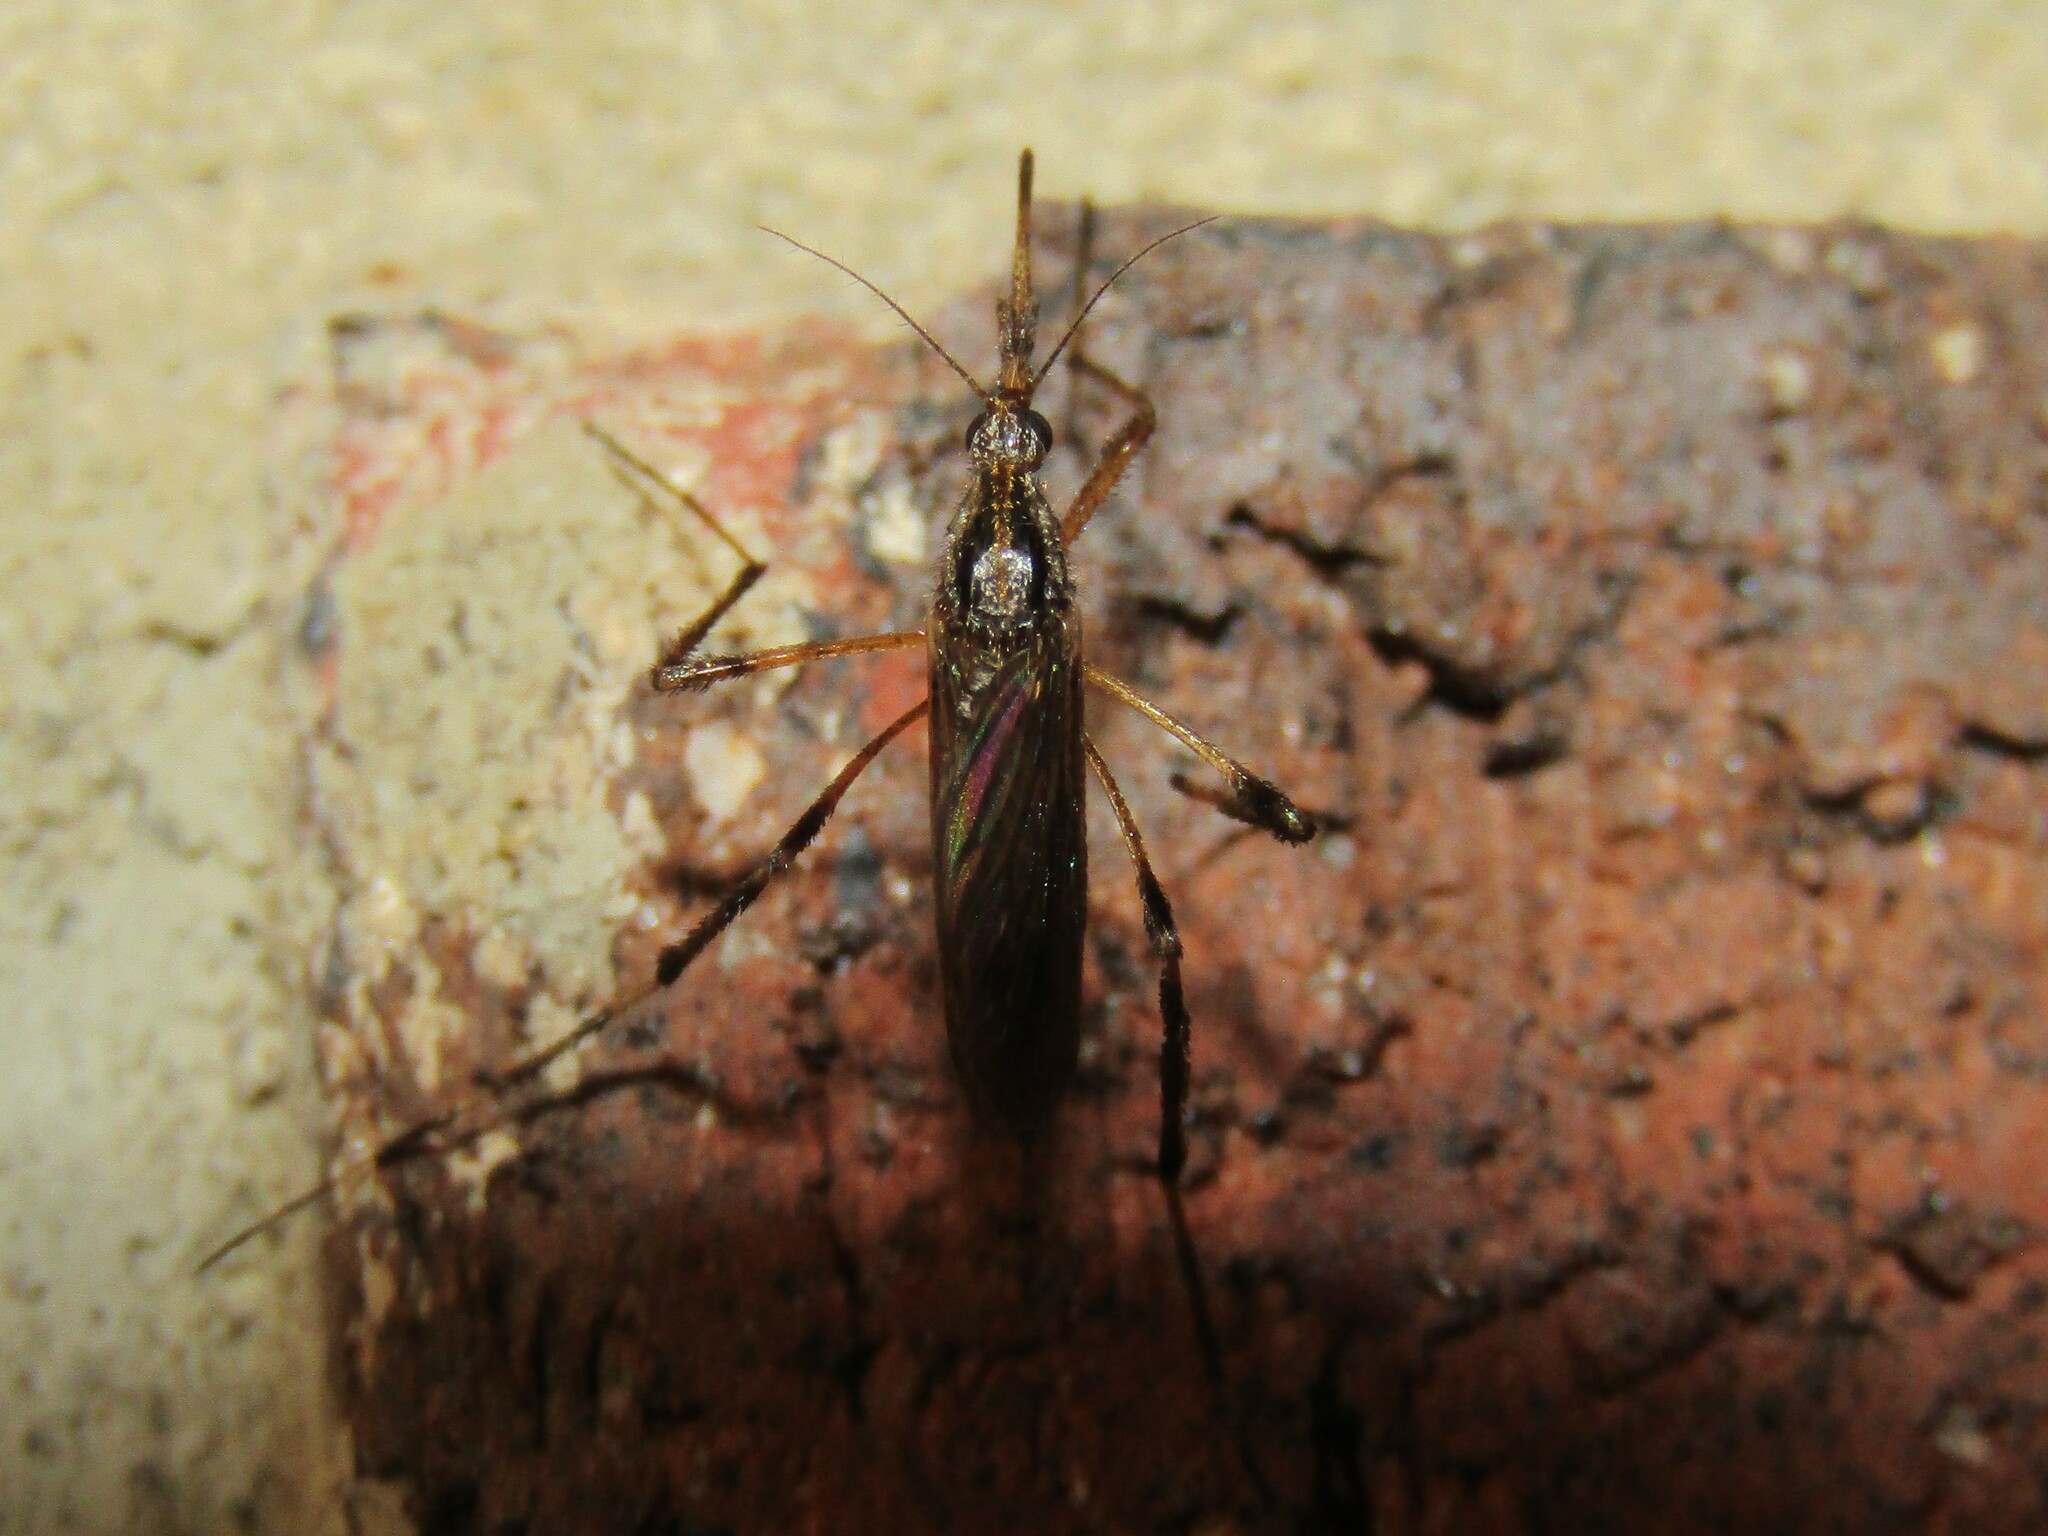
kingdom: Animalia
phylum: Arthropoda
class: Insecta
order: Diptera
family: Culicidae
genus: Psorophora
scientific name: Psorophora ciliata
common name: Gallinipper
